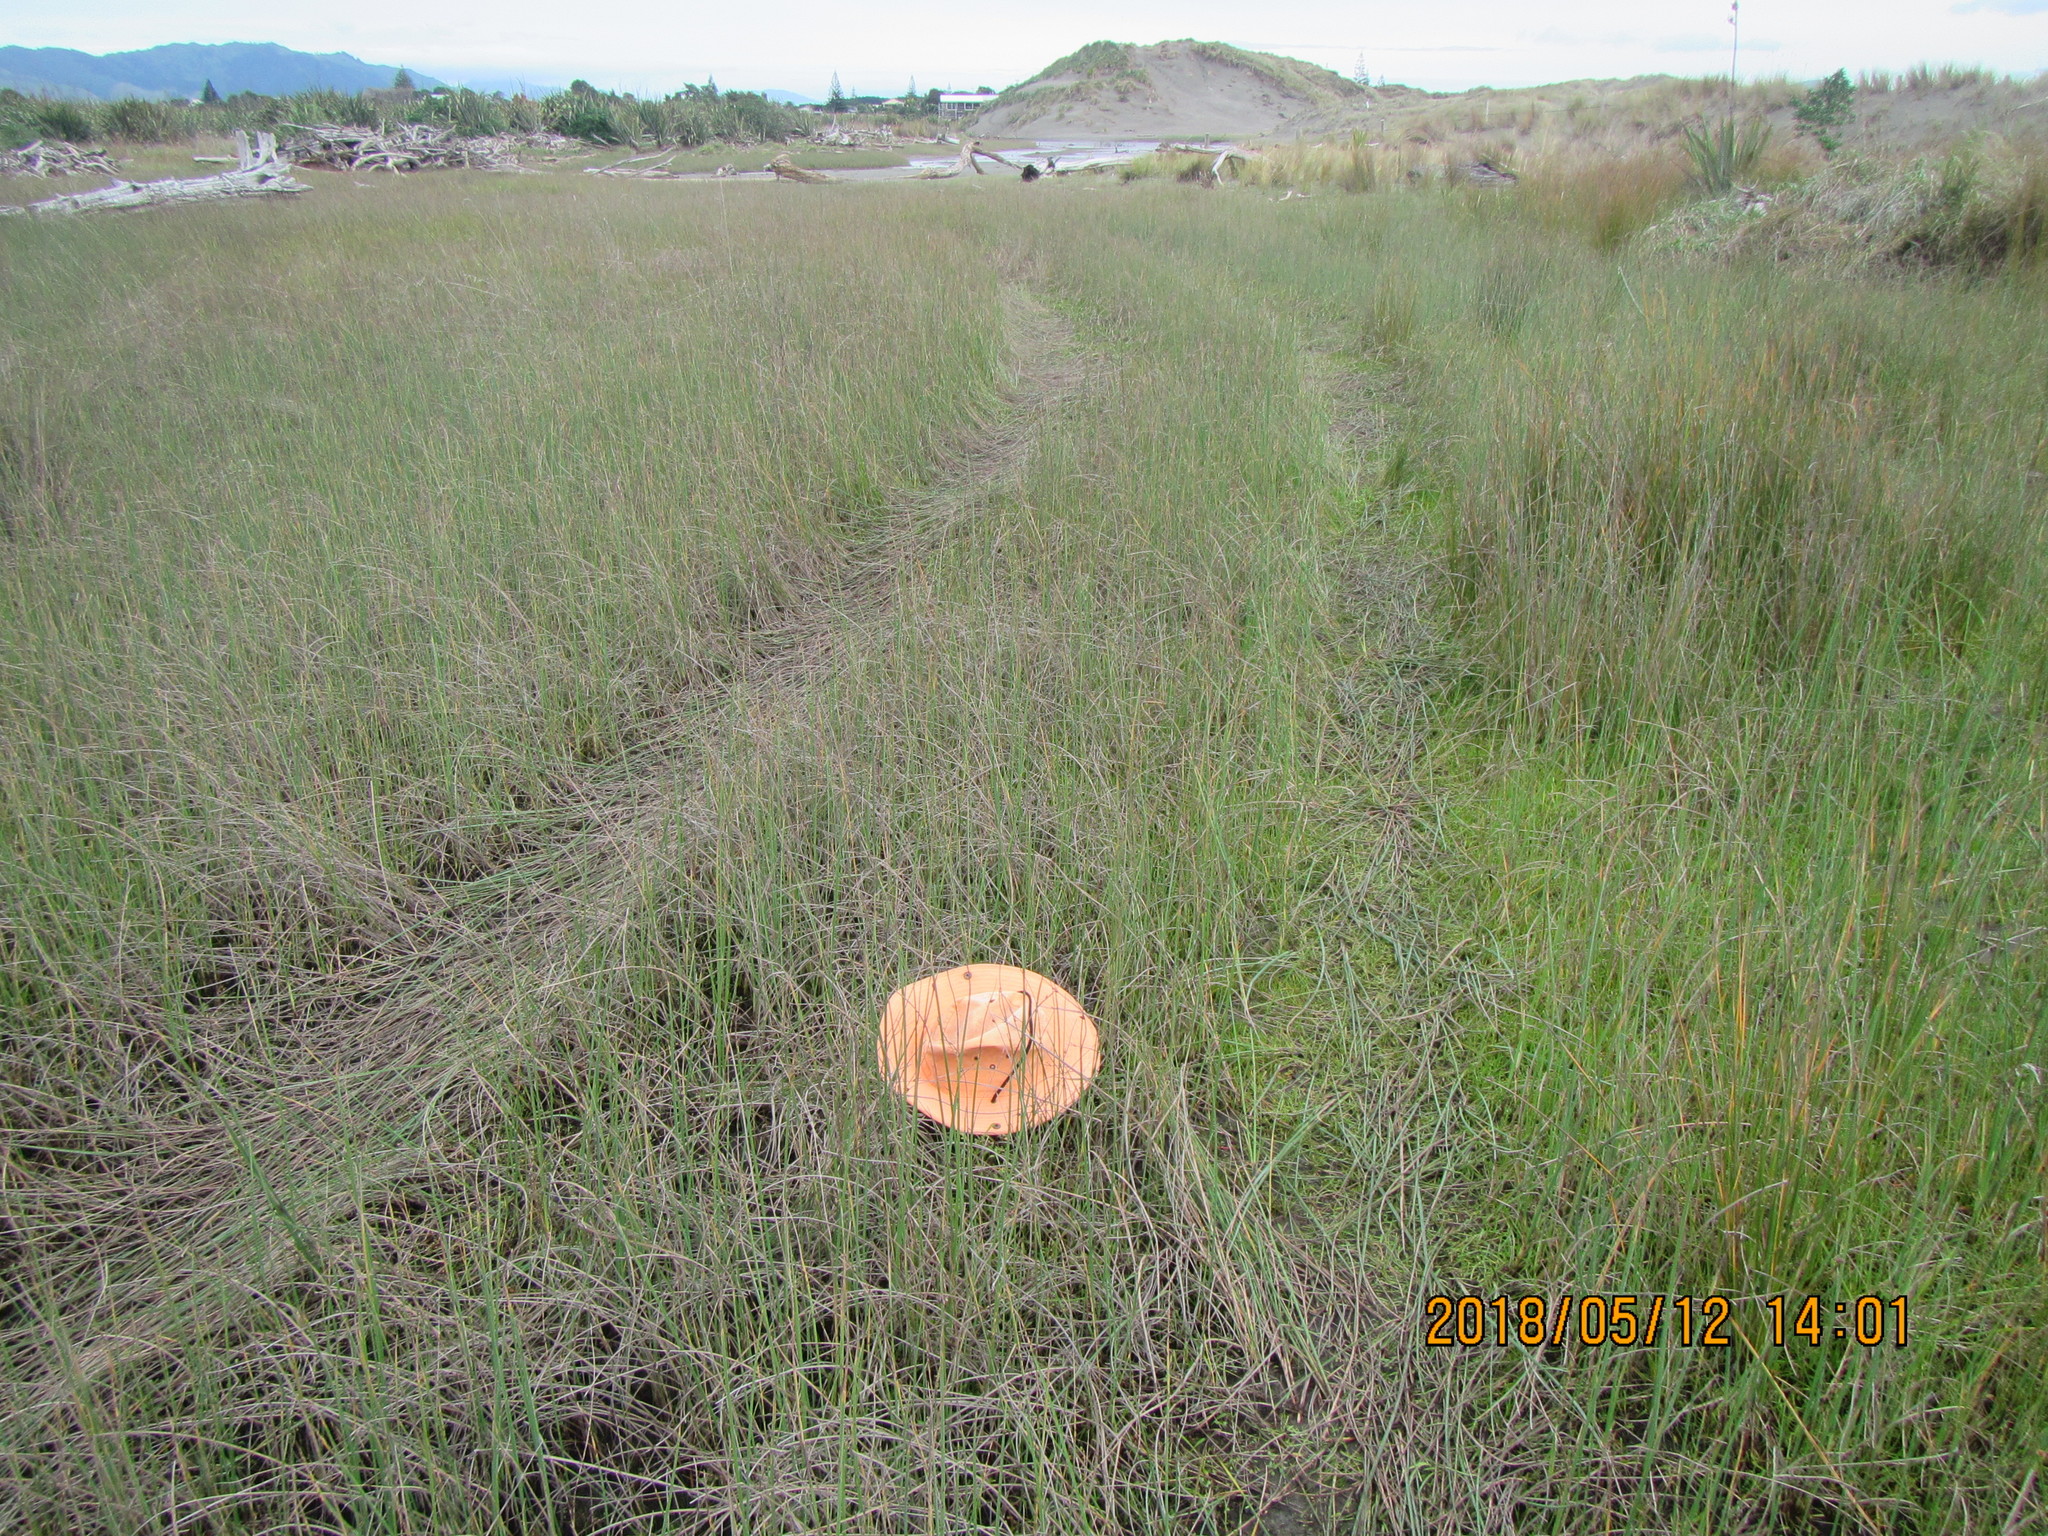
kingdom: Plantae
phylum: Tracheophyta
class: Magnoliopsida
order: Ericales
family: Primulaceae
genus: Samolus
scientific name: Samolus repens
